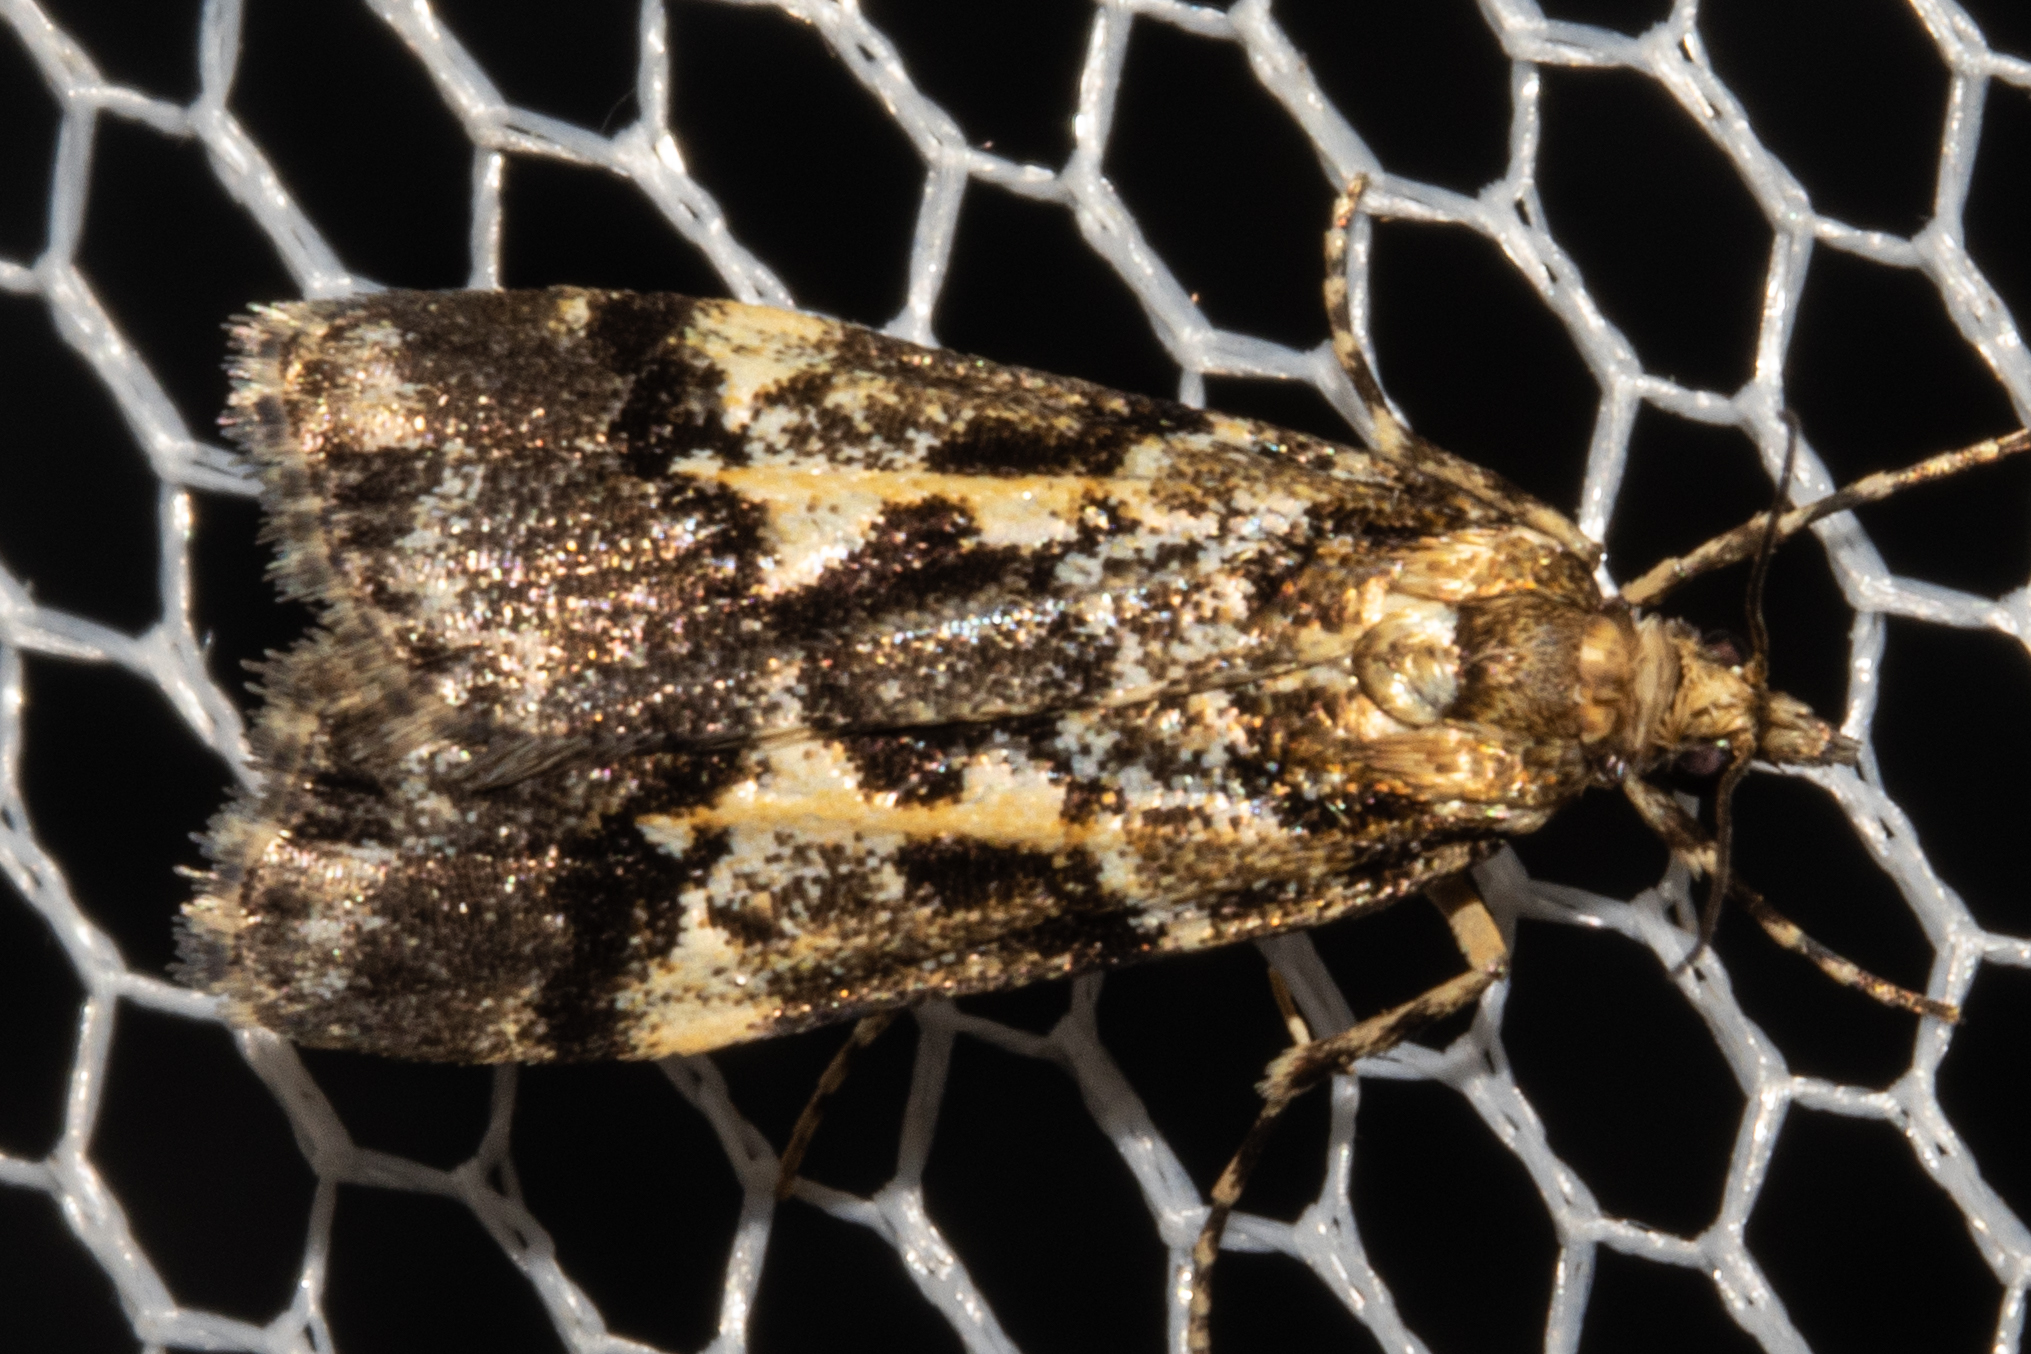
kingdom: Animalia
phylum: Arthropoda
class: Insecta
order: Lepidoptera
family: Crambidae
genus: Eudonia
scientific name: Eudonia characta
